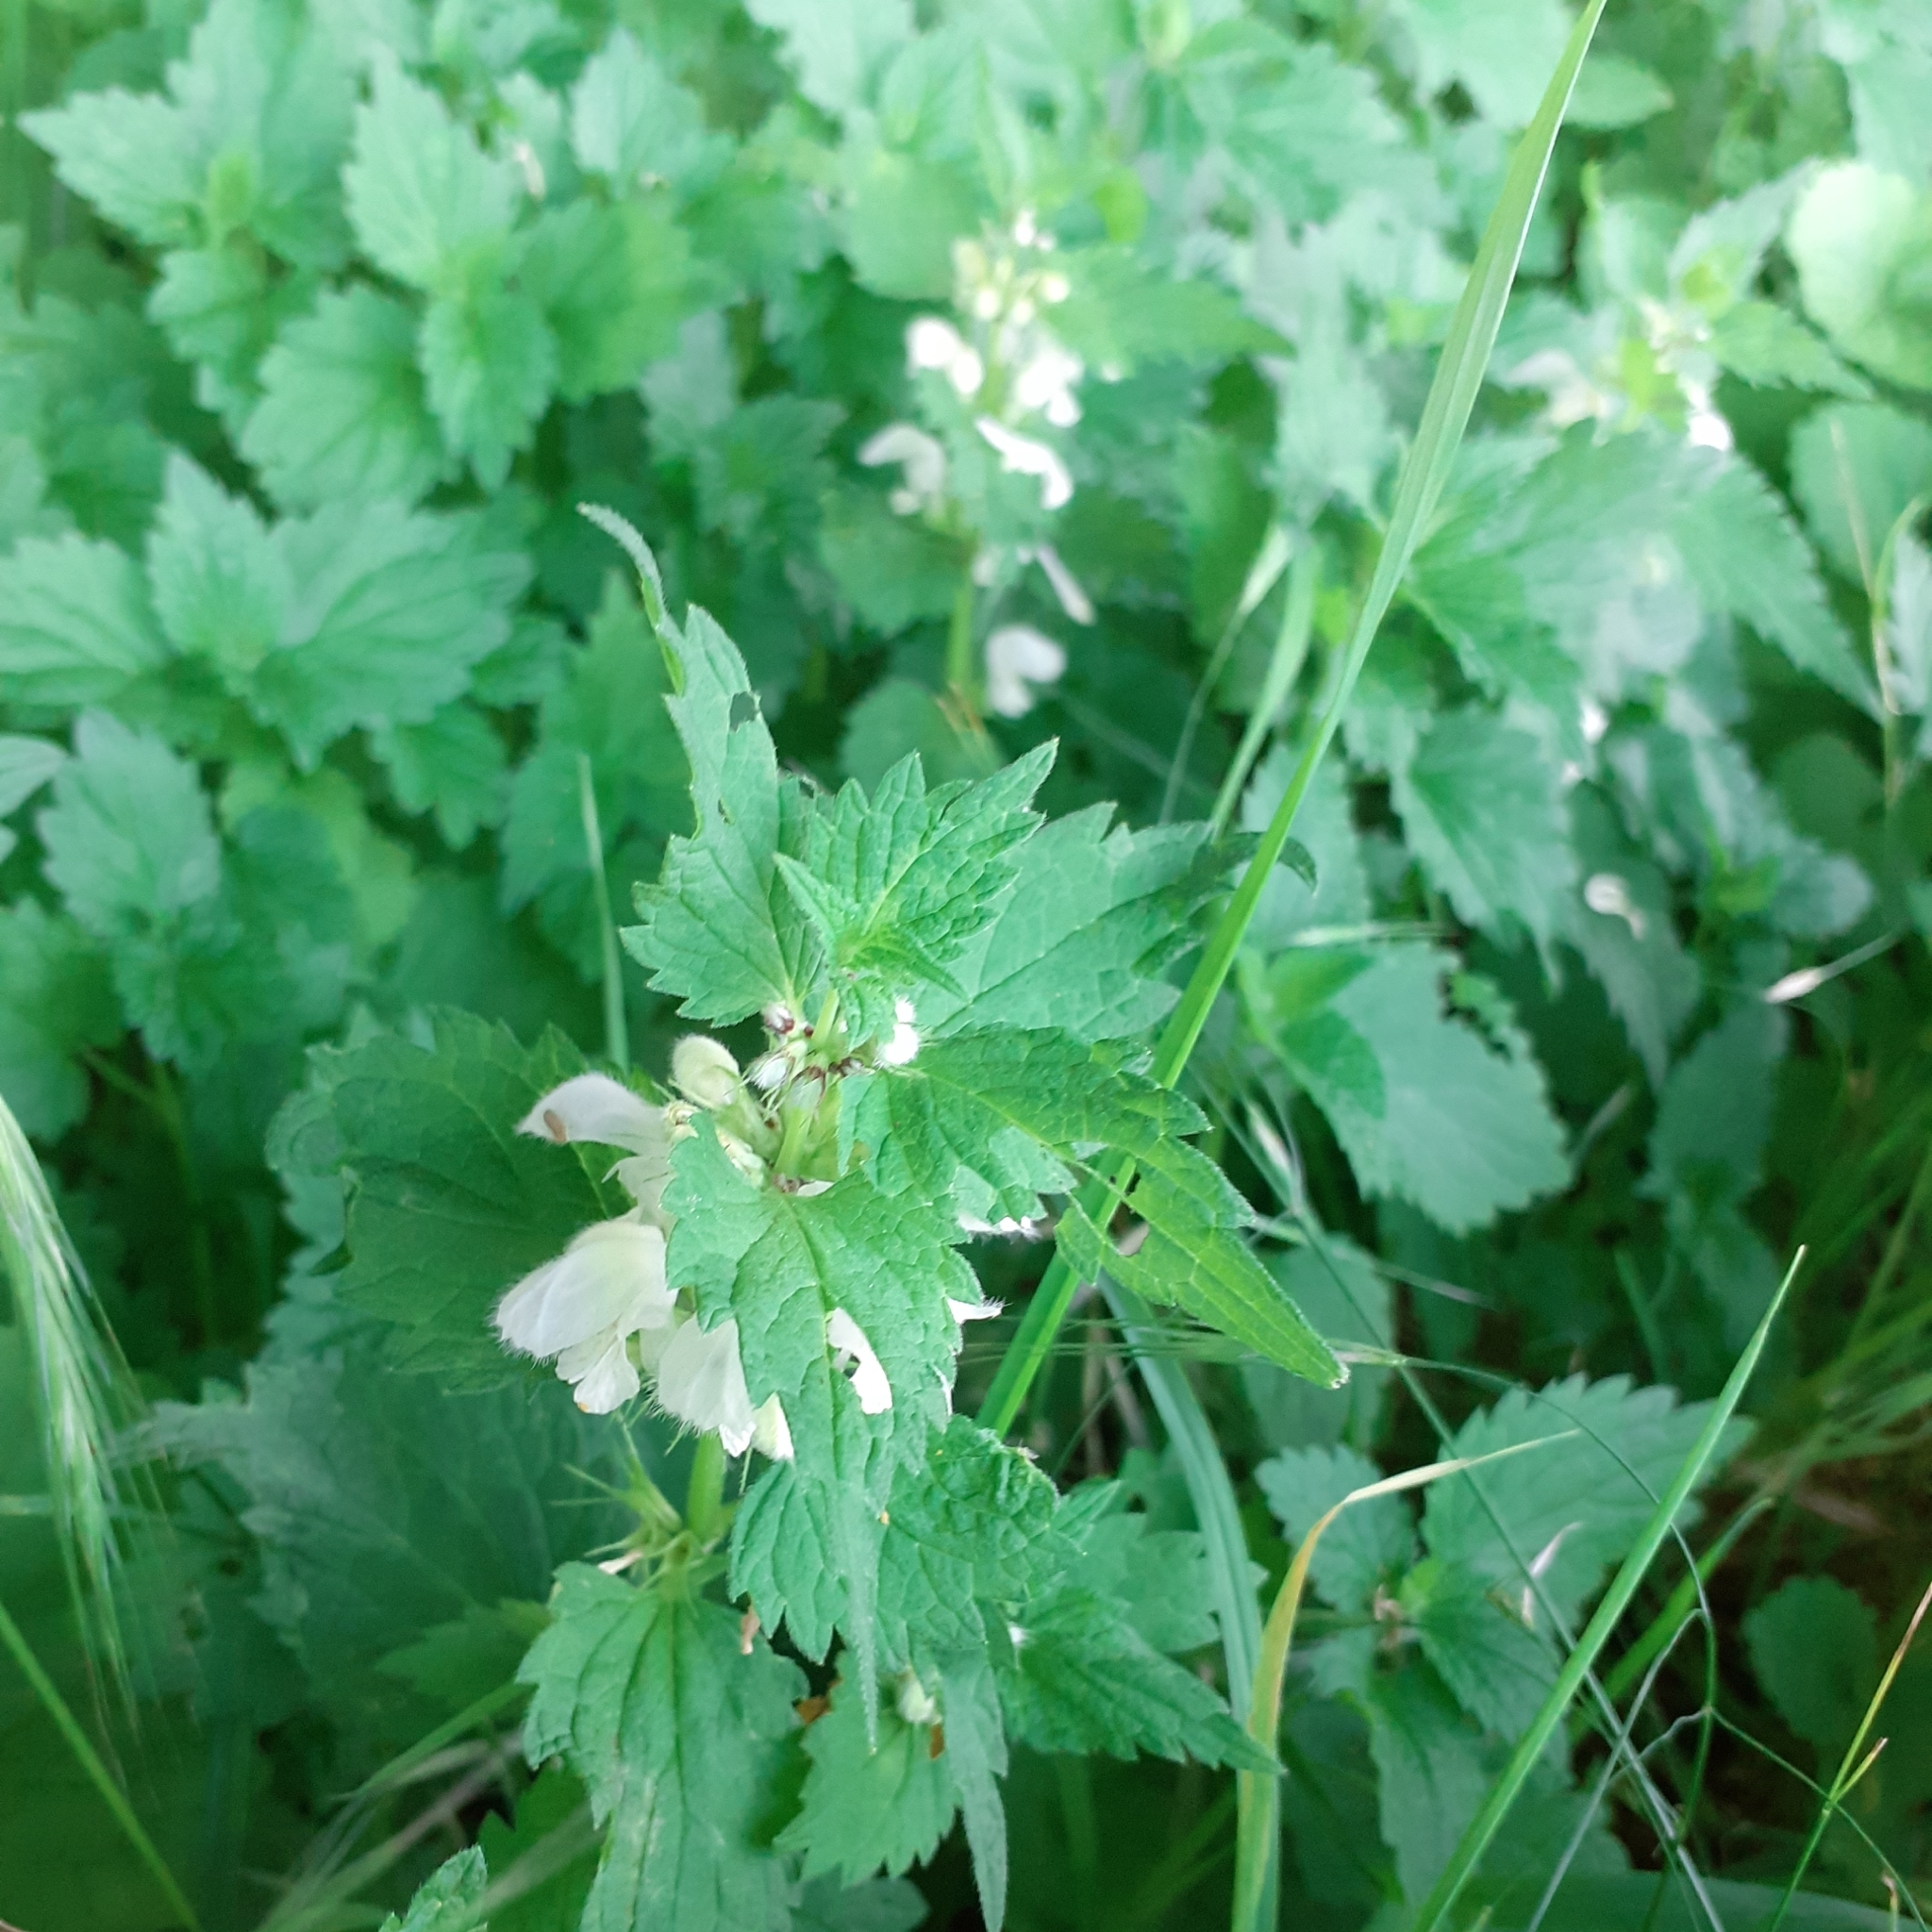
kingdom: Plantae
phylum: Tracheophyta
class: Magnoliopsida
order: Lamiales
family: Lamiaceae
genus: Lamium
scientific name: Lamium album
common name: White dead-nettle
